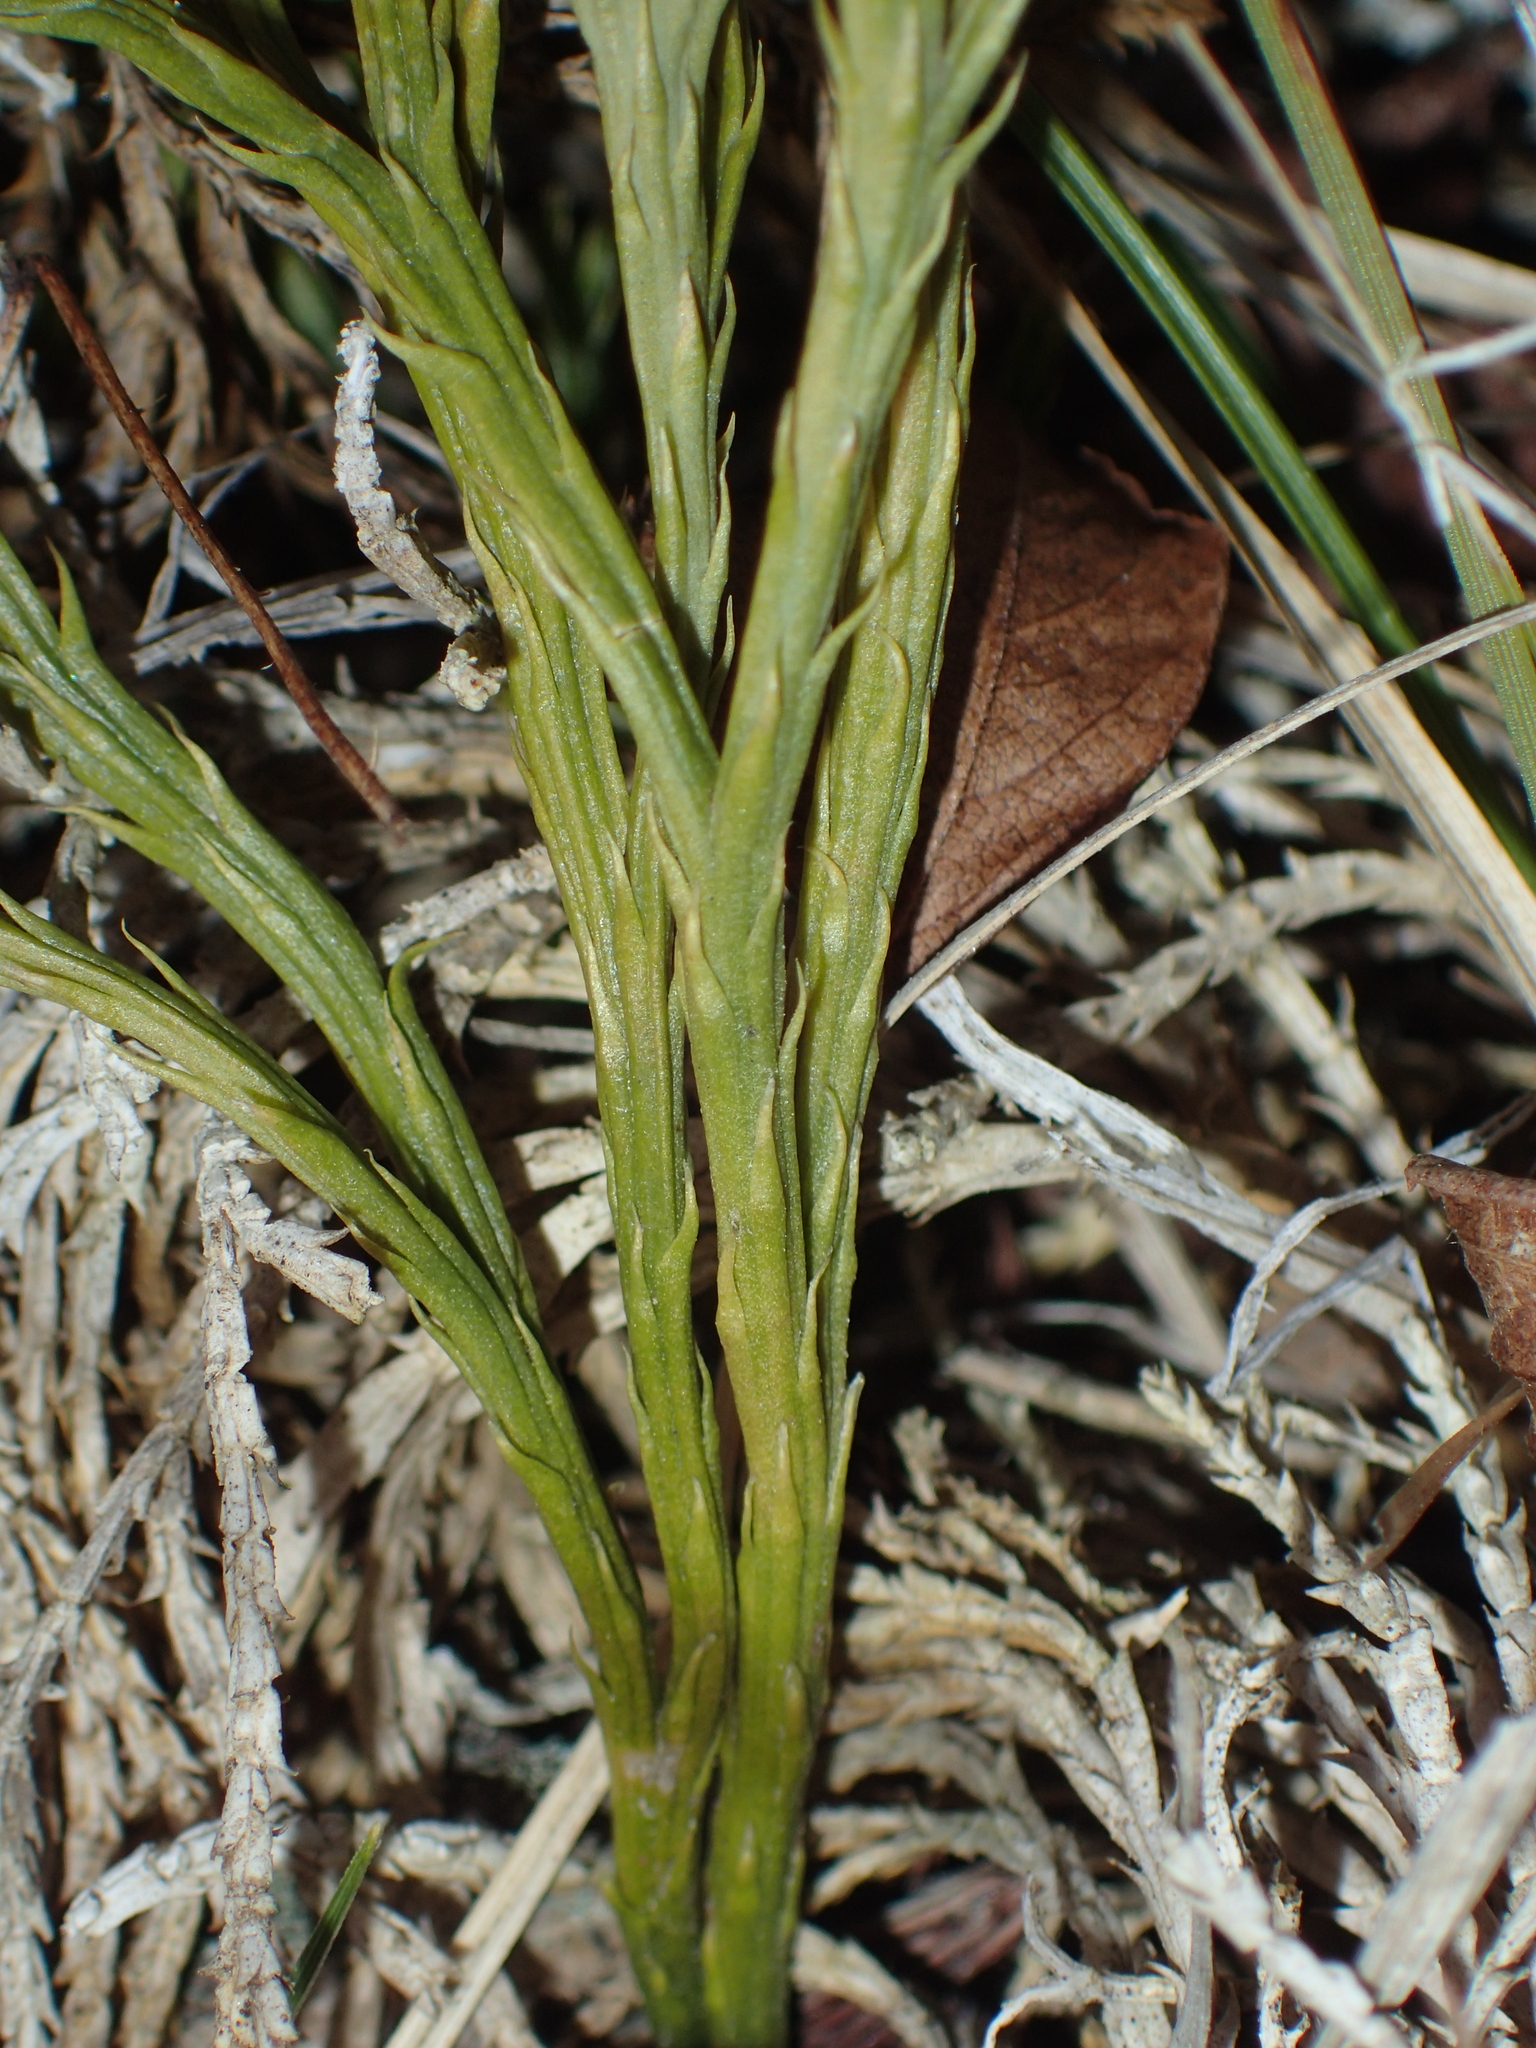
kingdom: Plantae
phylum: Tracheophyta
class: Lycopodiopsida
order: Lycopodiales
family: Lycopodiaceae
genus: Diphasiastrum
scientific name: Diphasiastrum tristachyum
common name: Blue ground-cedar
